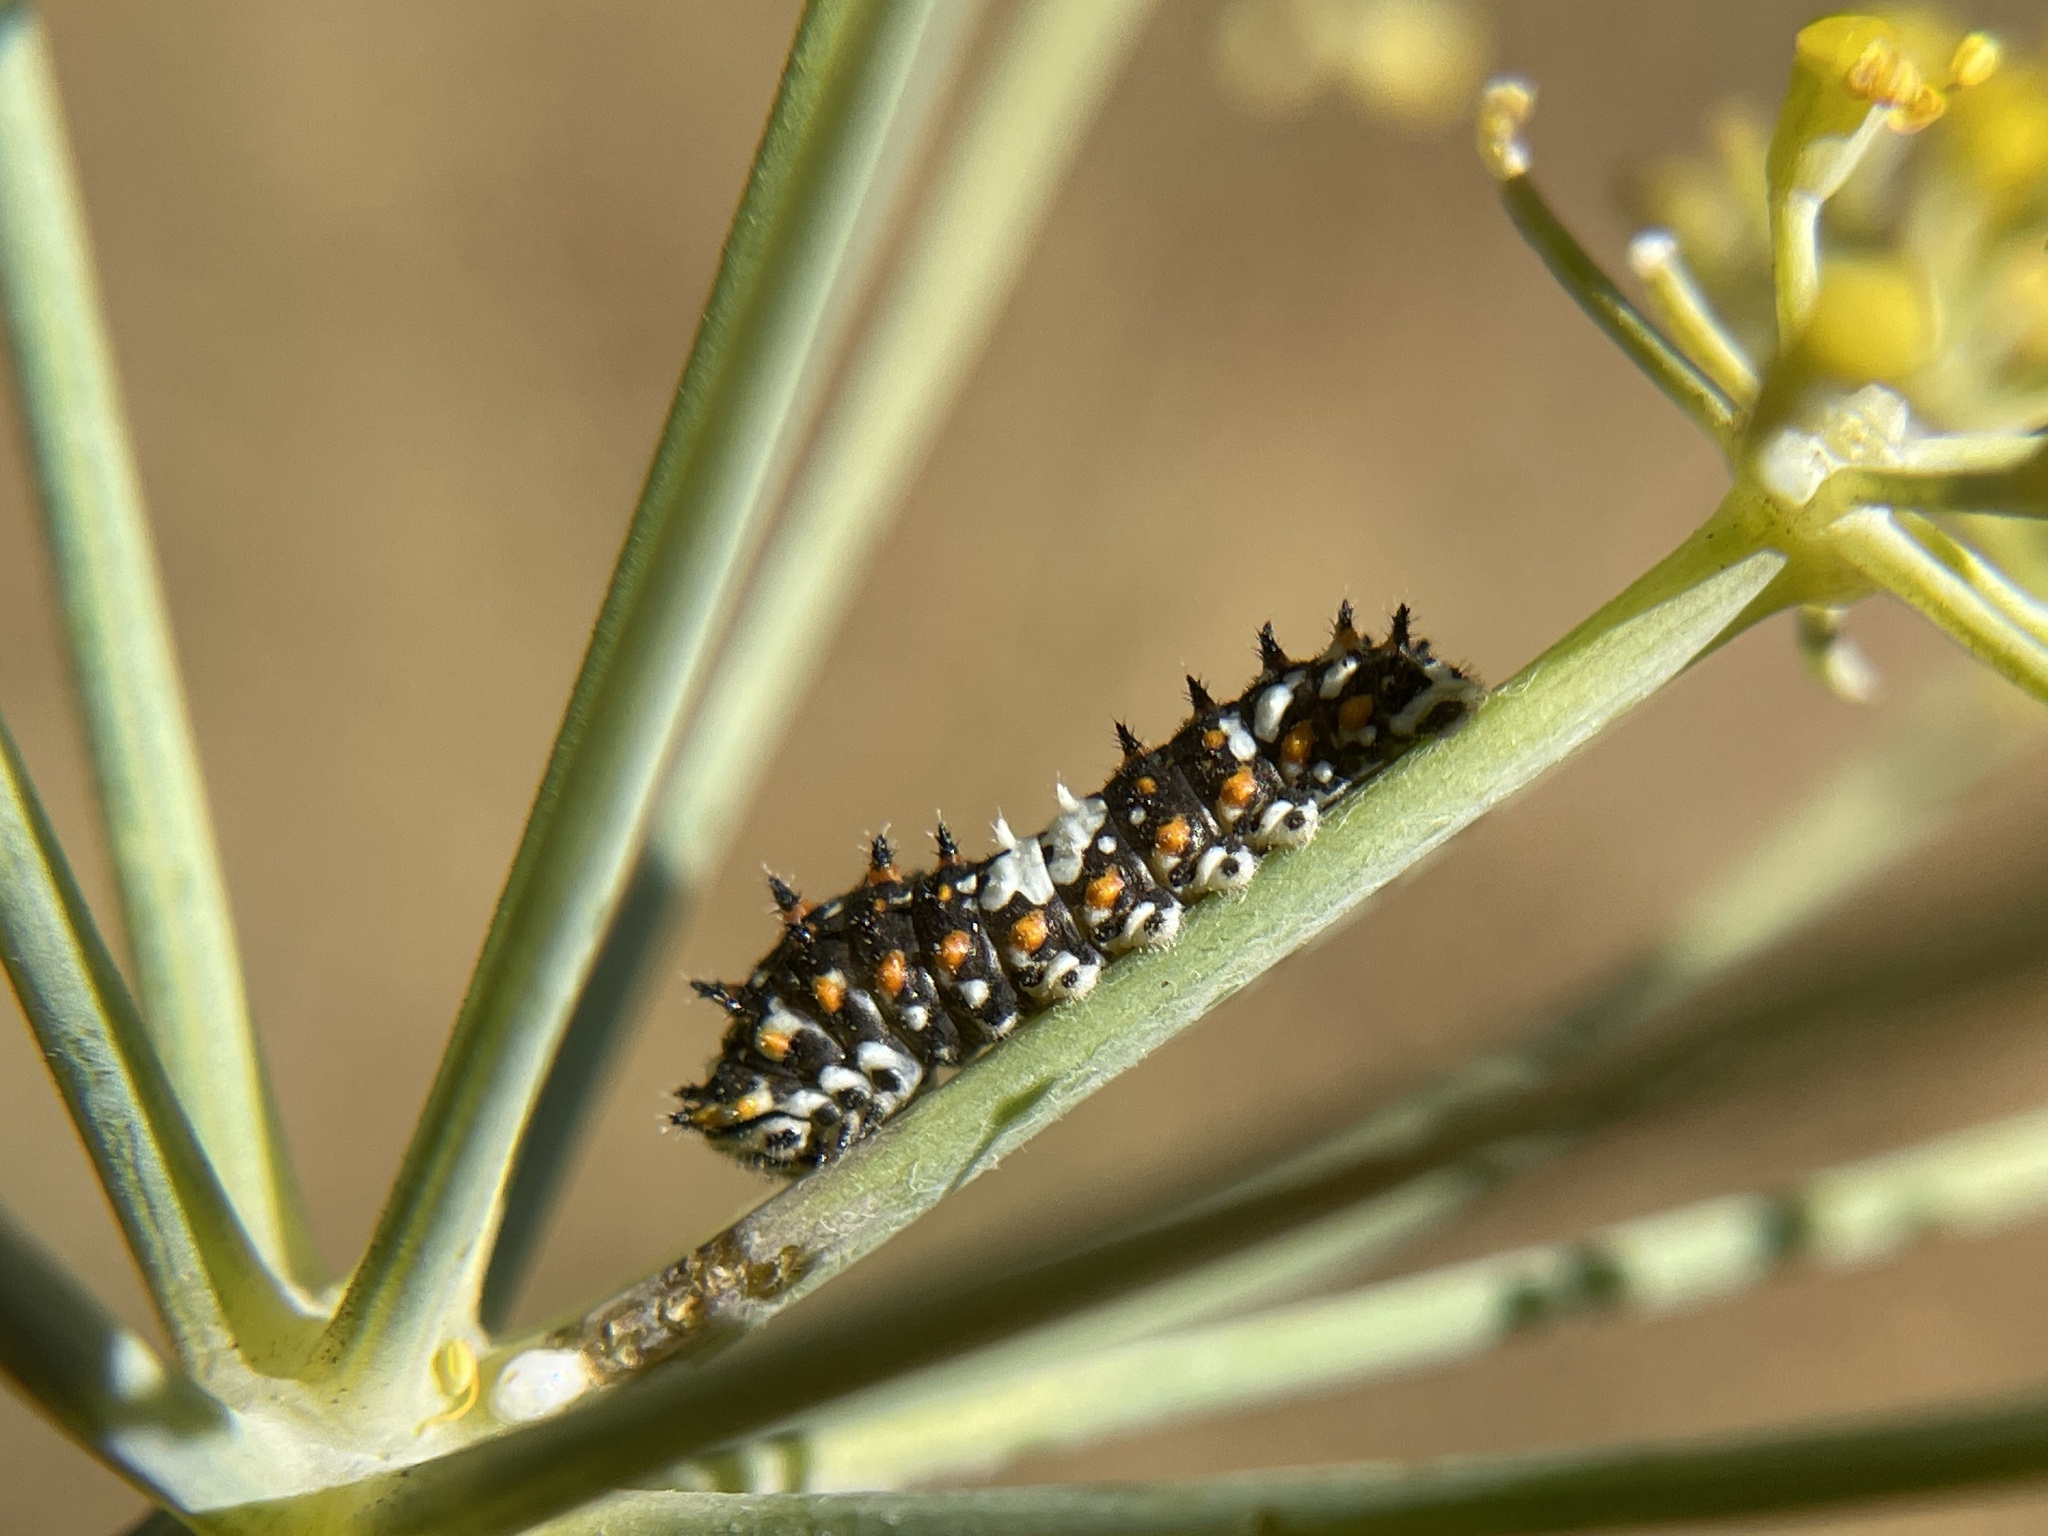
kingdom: Animalia
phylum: Arthropoda
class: Insecta
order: Lepidoptera
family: Papilionidae
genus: Papilio
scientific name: Papilio zelicaon
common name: Anise swallowtail
